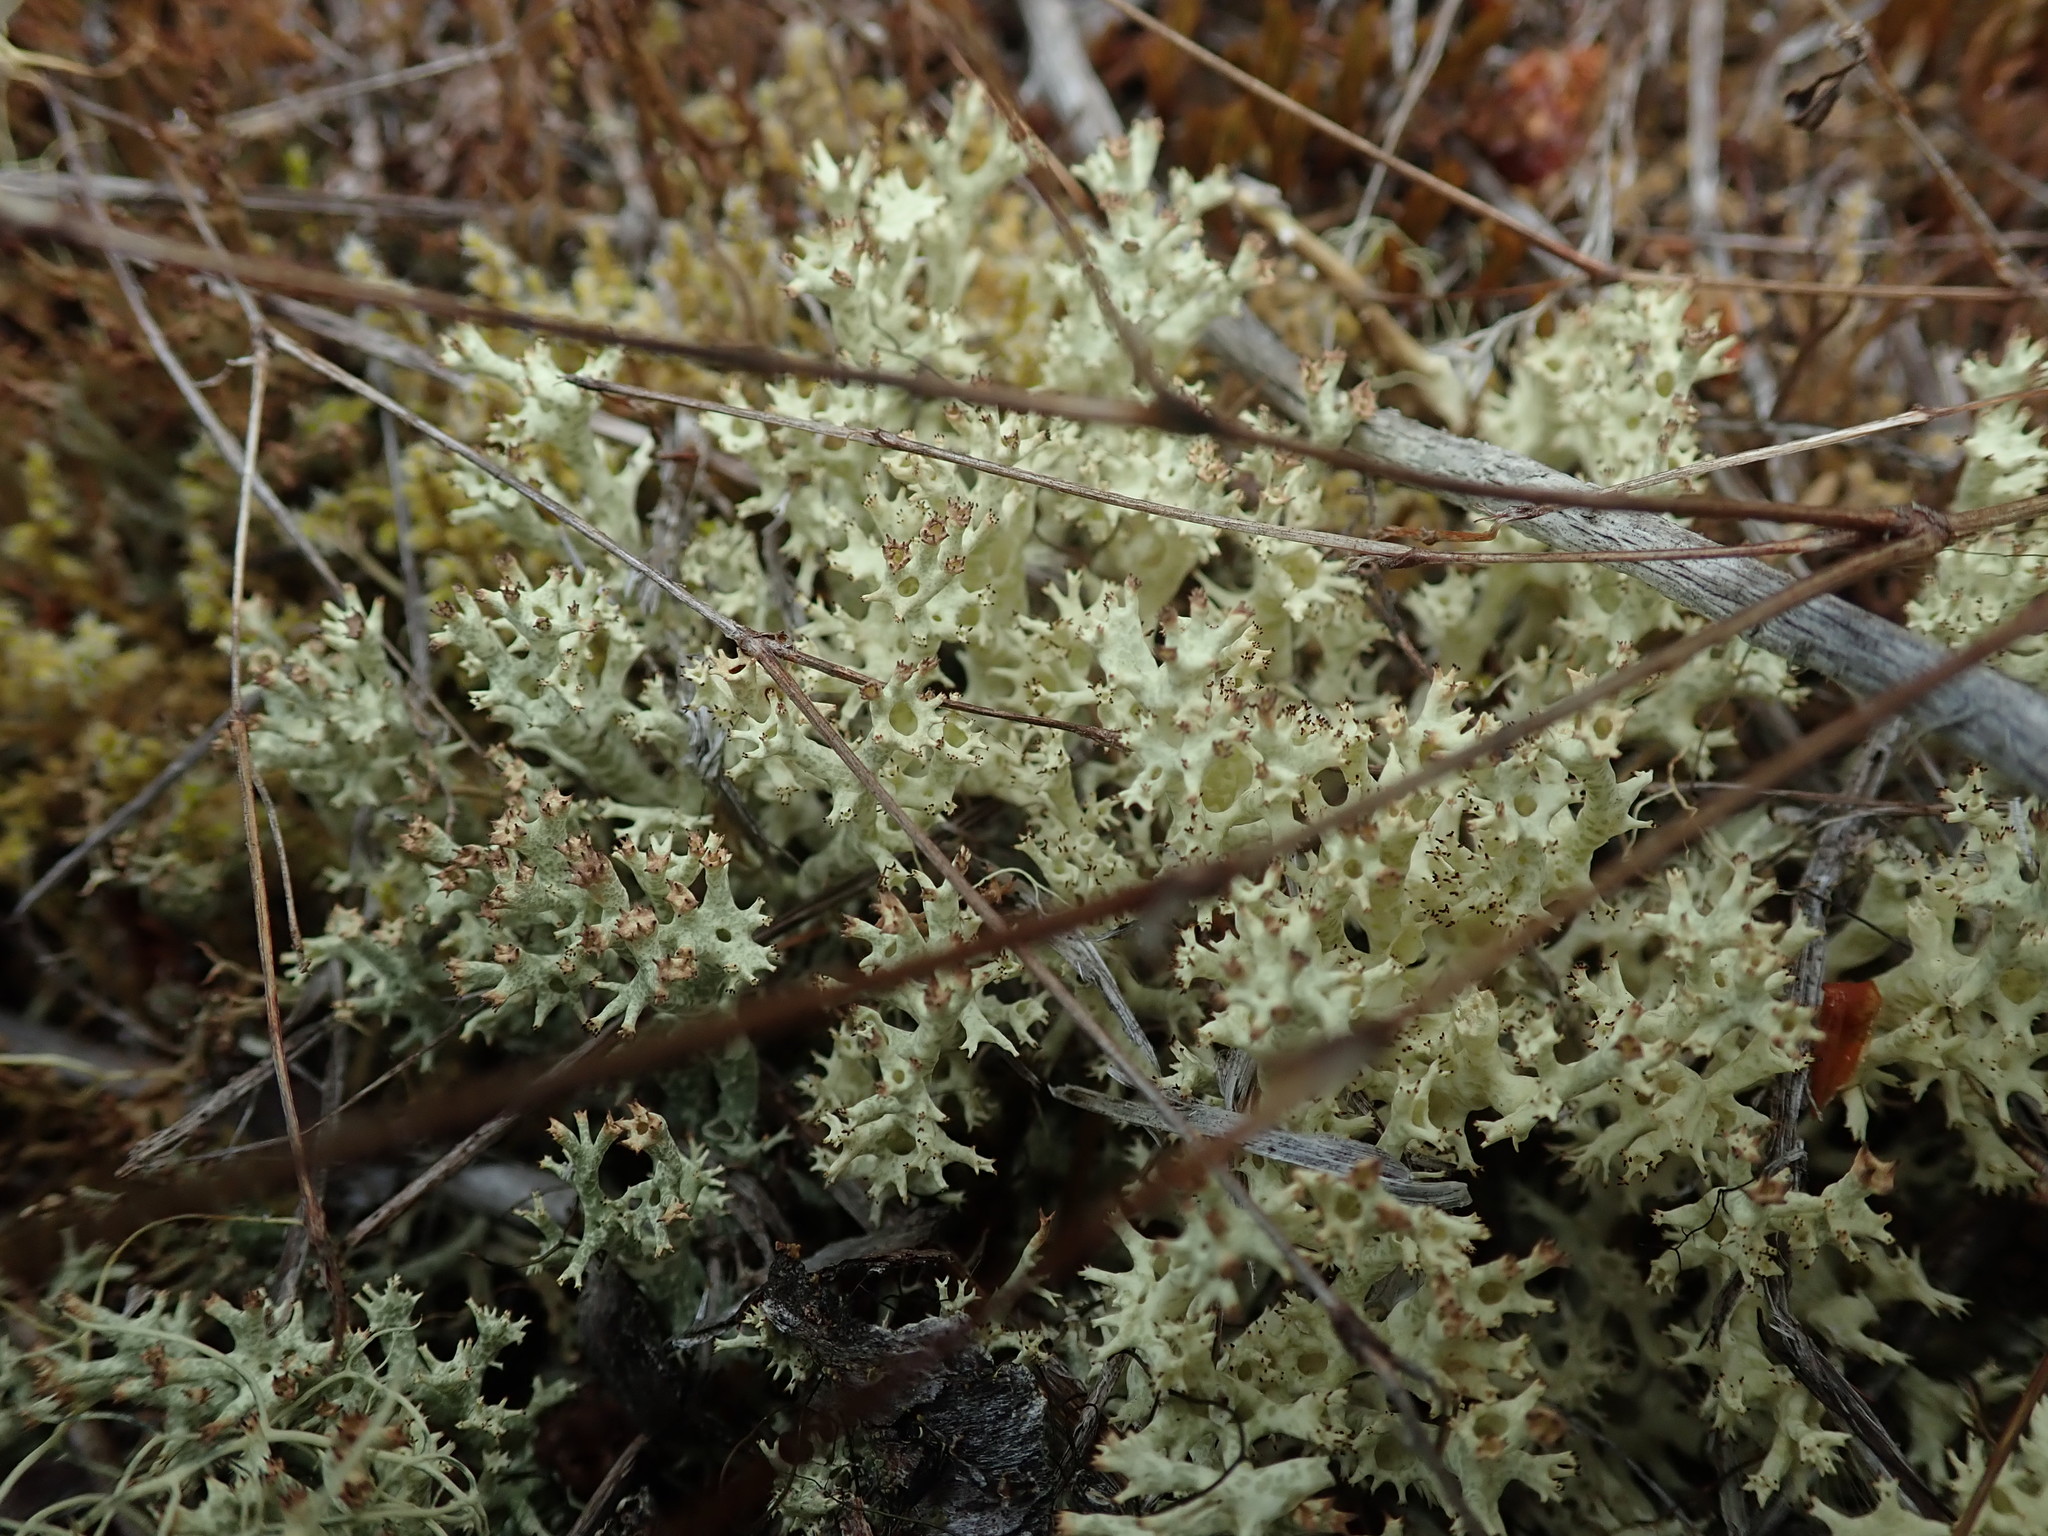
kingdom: Fungi
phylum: Ascomycota
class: Lecanoromycetes
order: Lecanorales
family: Cladoniaceae
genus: Cladonia
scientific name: Cladonia uncialis
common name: Thorn lichen
